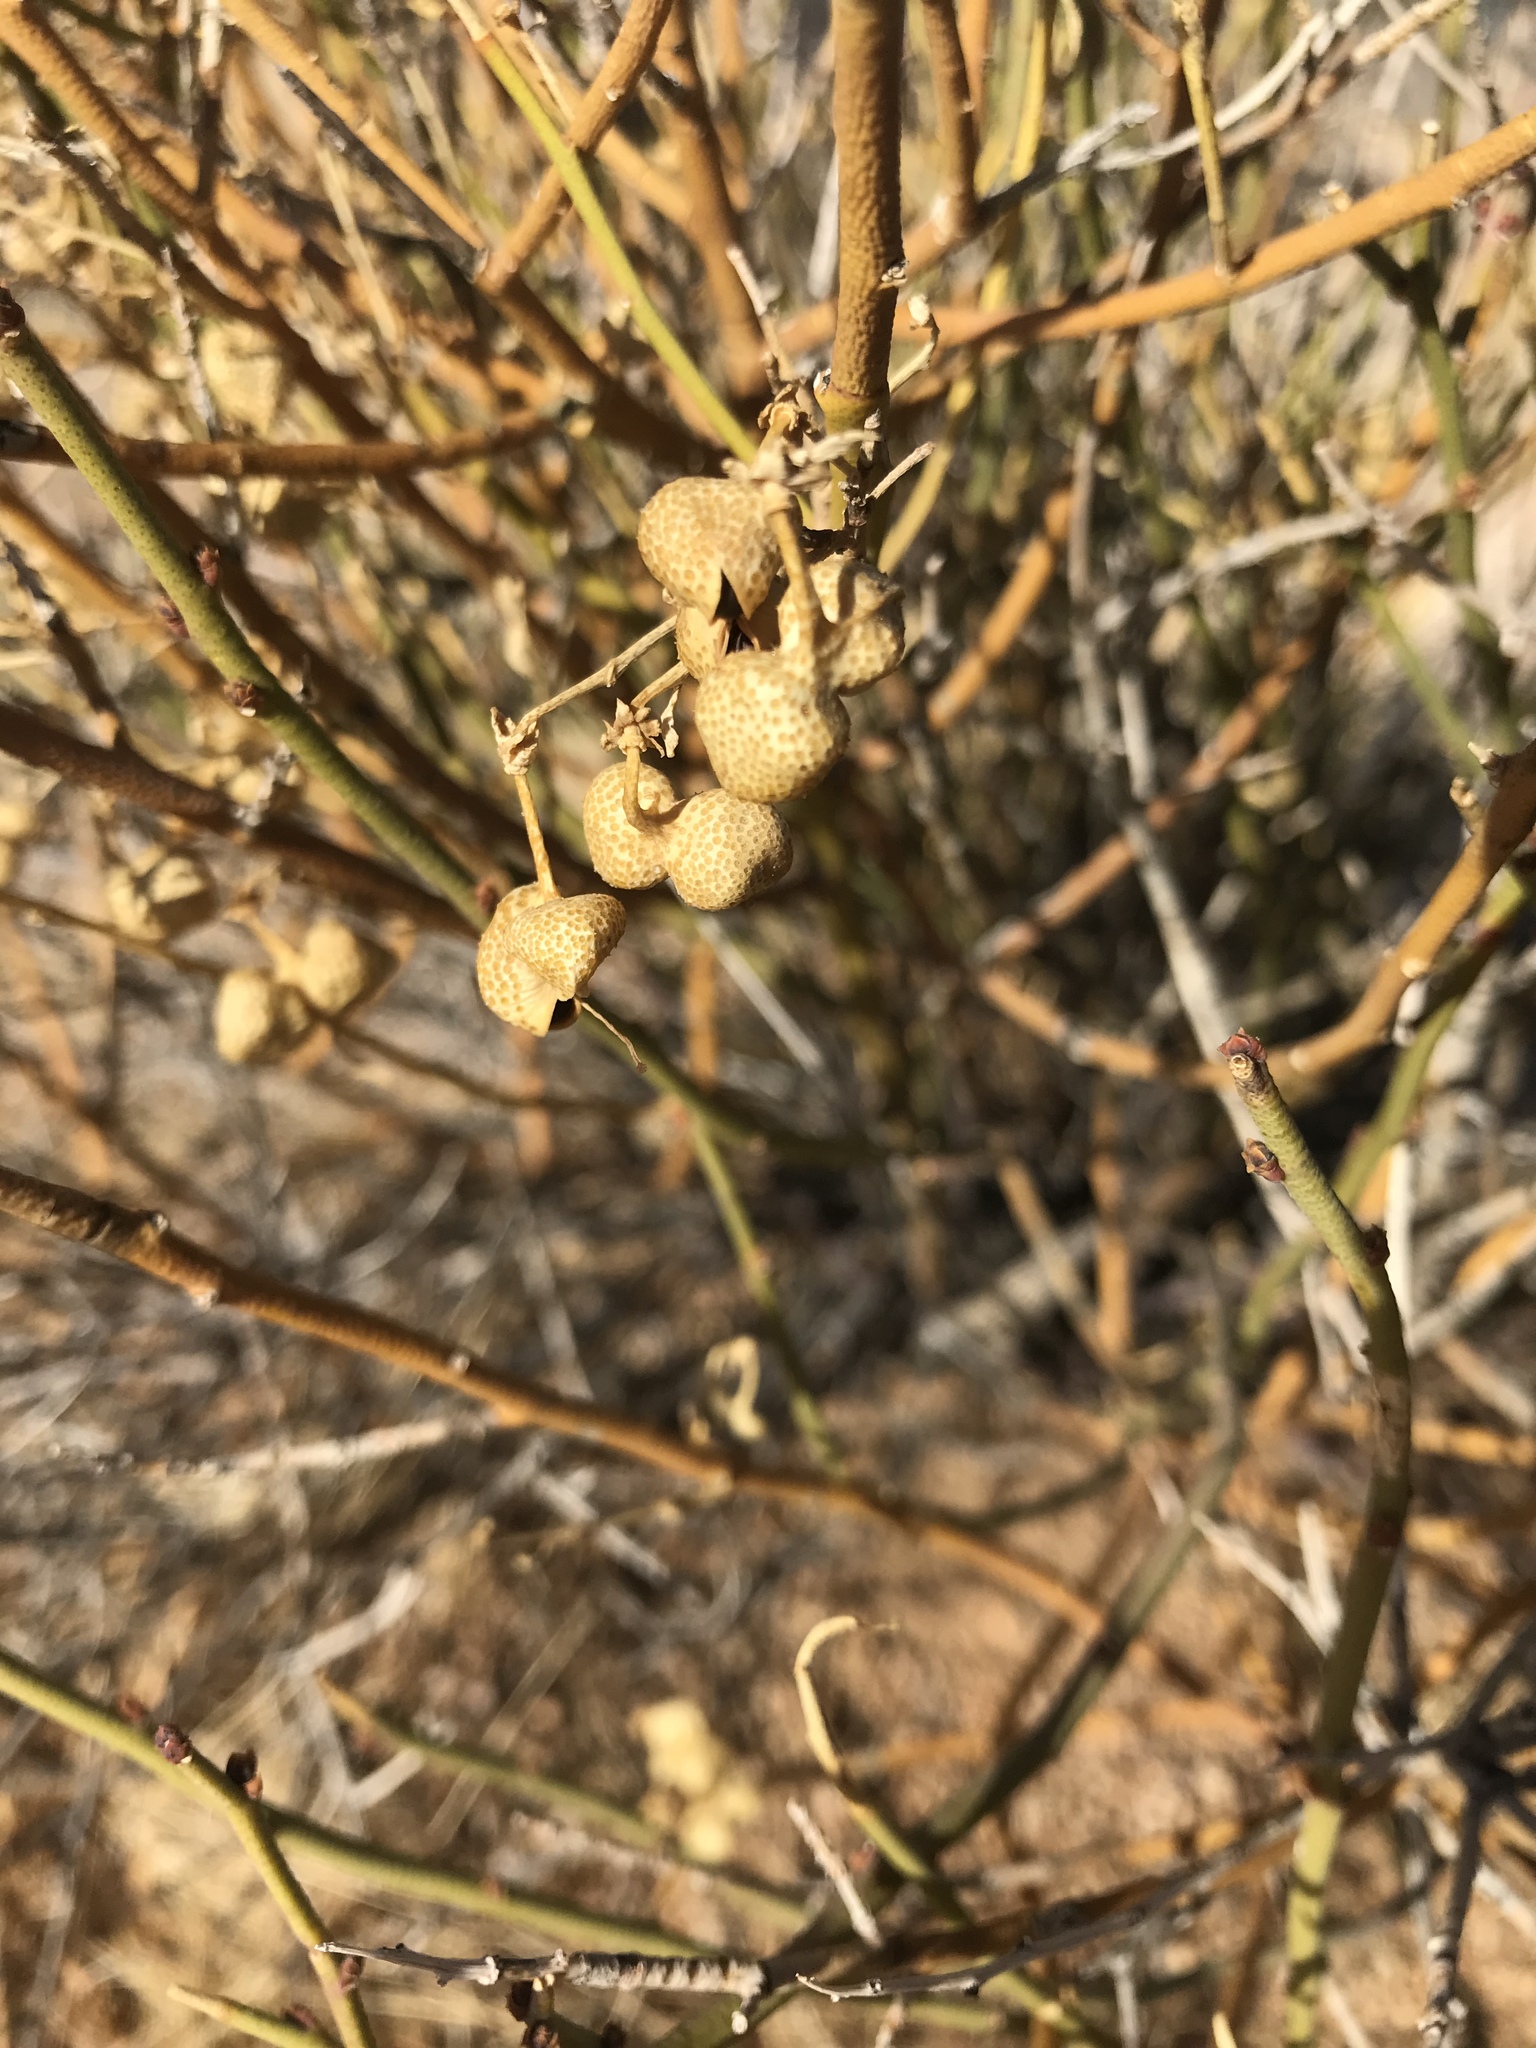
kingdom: Plantae
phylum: Tracheophyta
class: Magnoliopsida
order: Sapindales
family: Rutaceae
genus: Thamnosma
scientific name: Thamnosma montana
